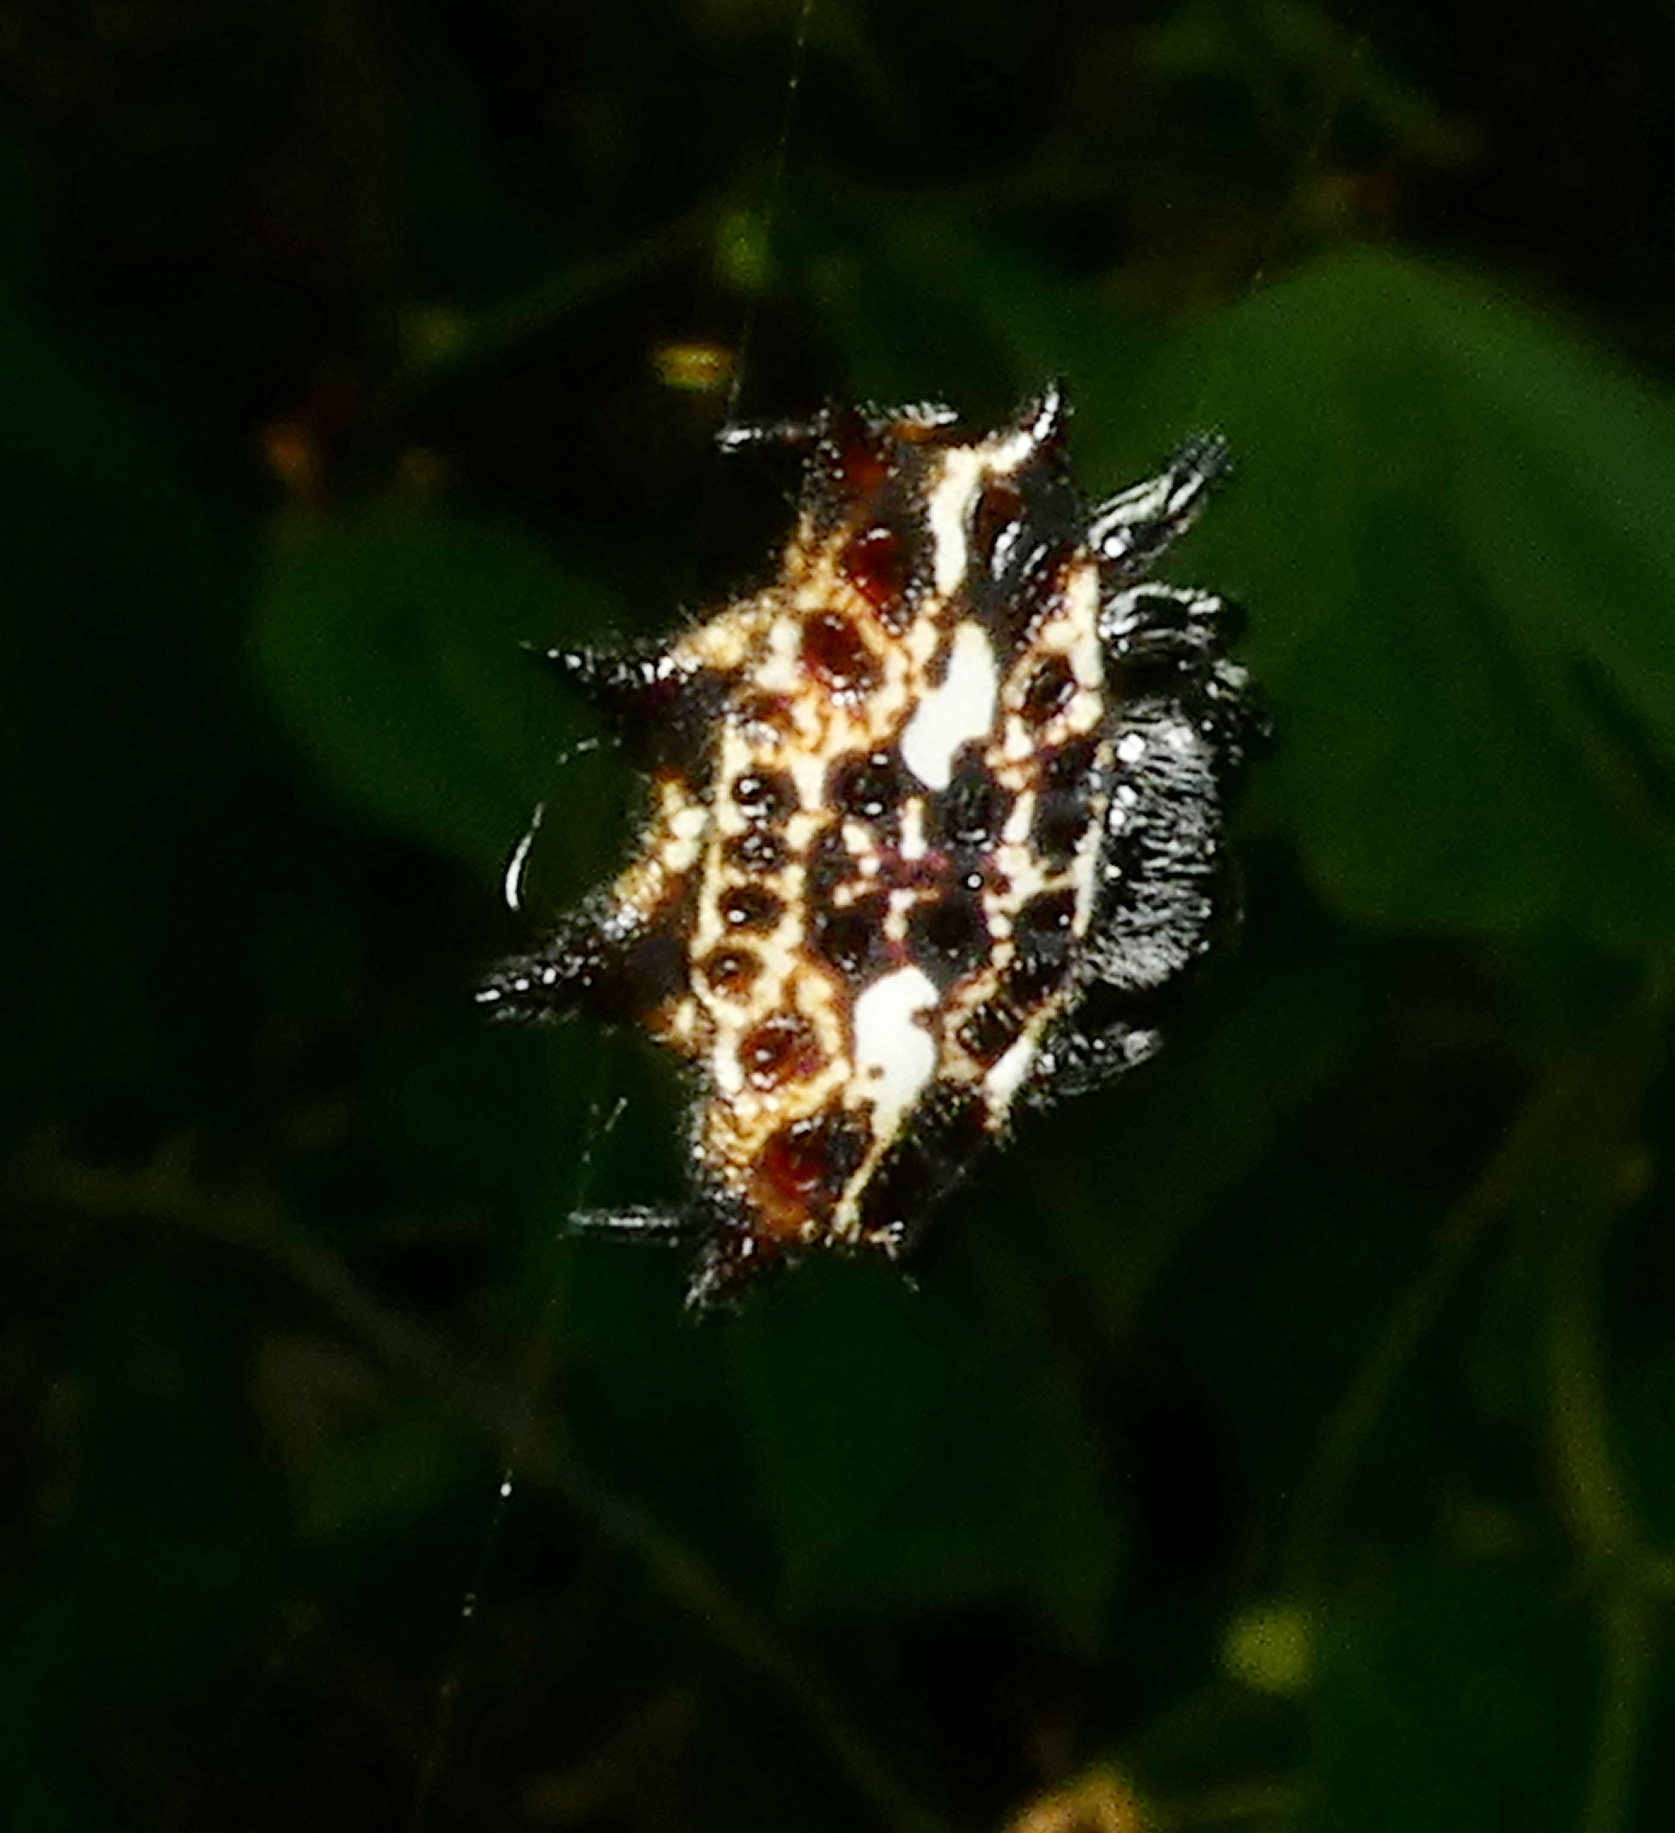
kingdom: Animalia
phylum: Arthropoda
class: Arachnida
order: Araneae
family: Araneidae
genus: Gasteracantha
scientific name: Gasteracantha cancriformis
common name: Orb weavers
